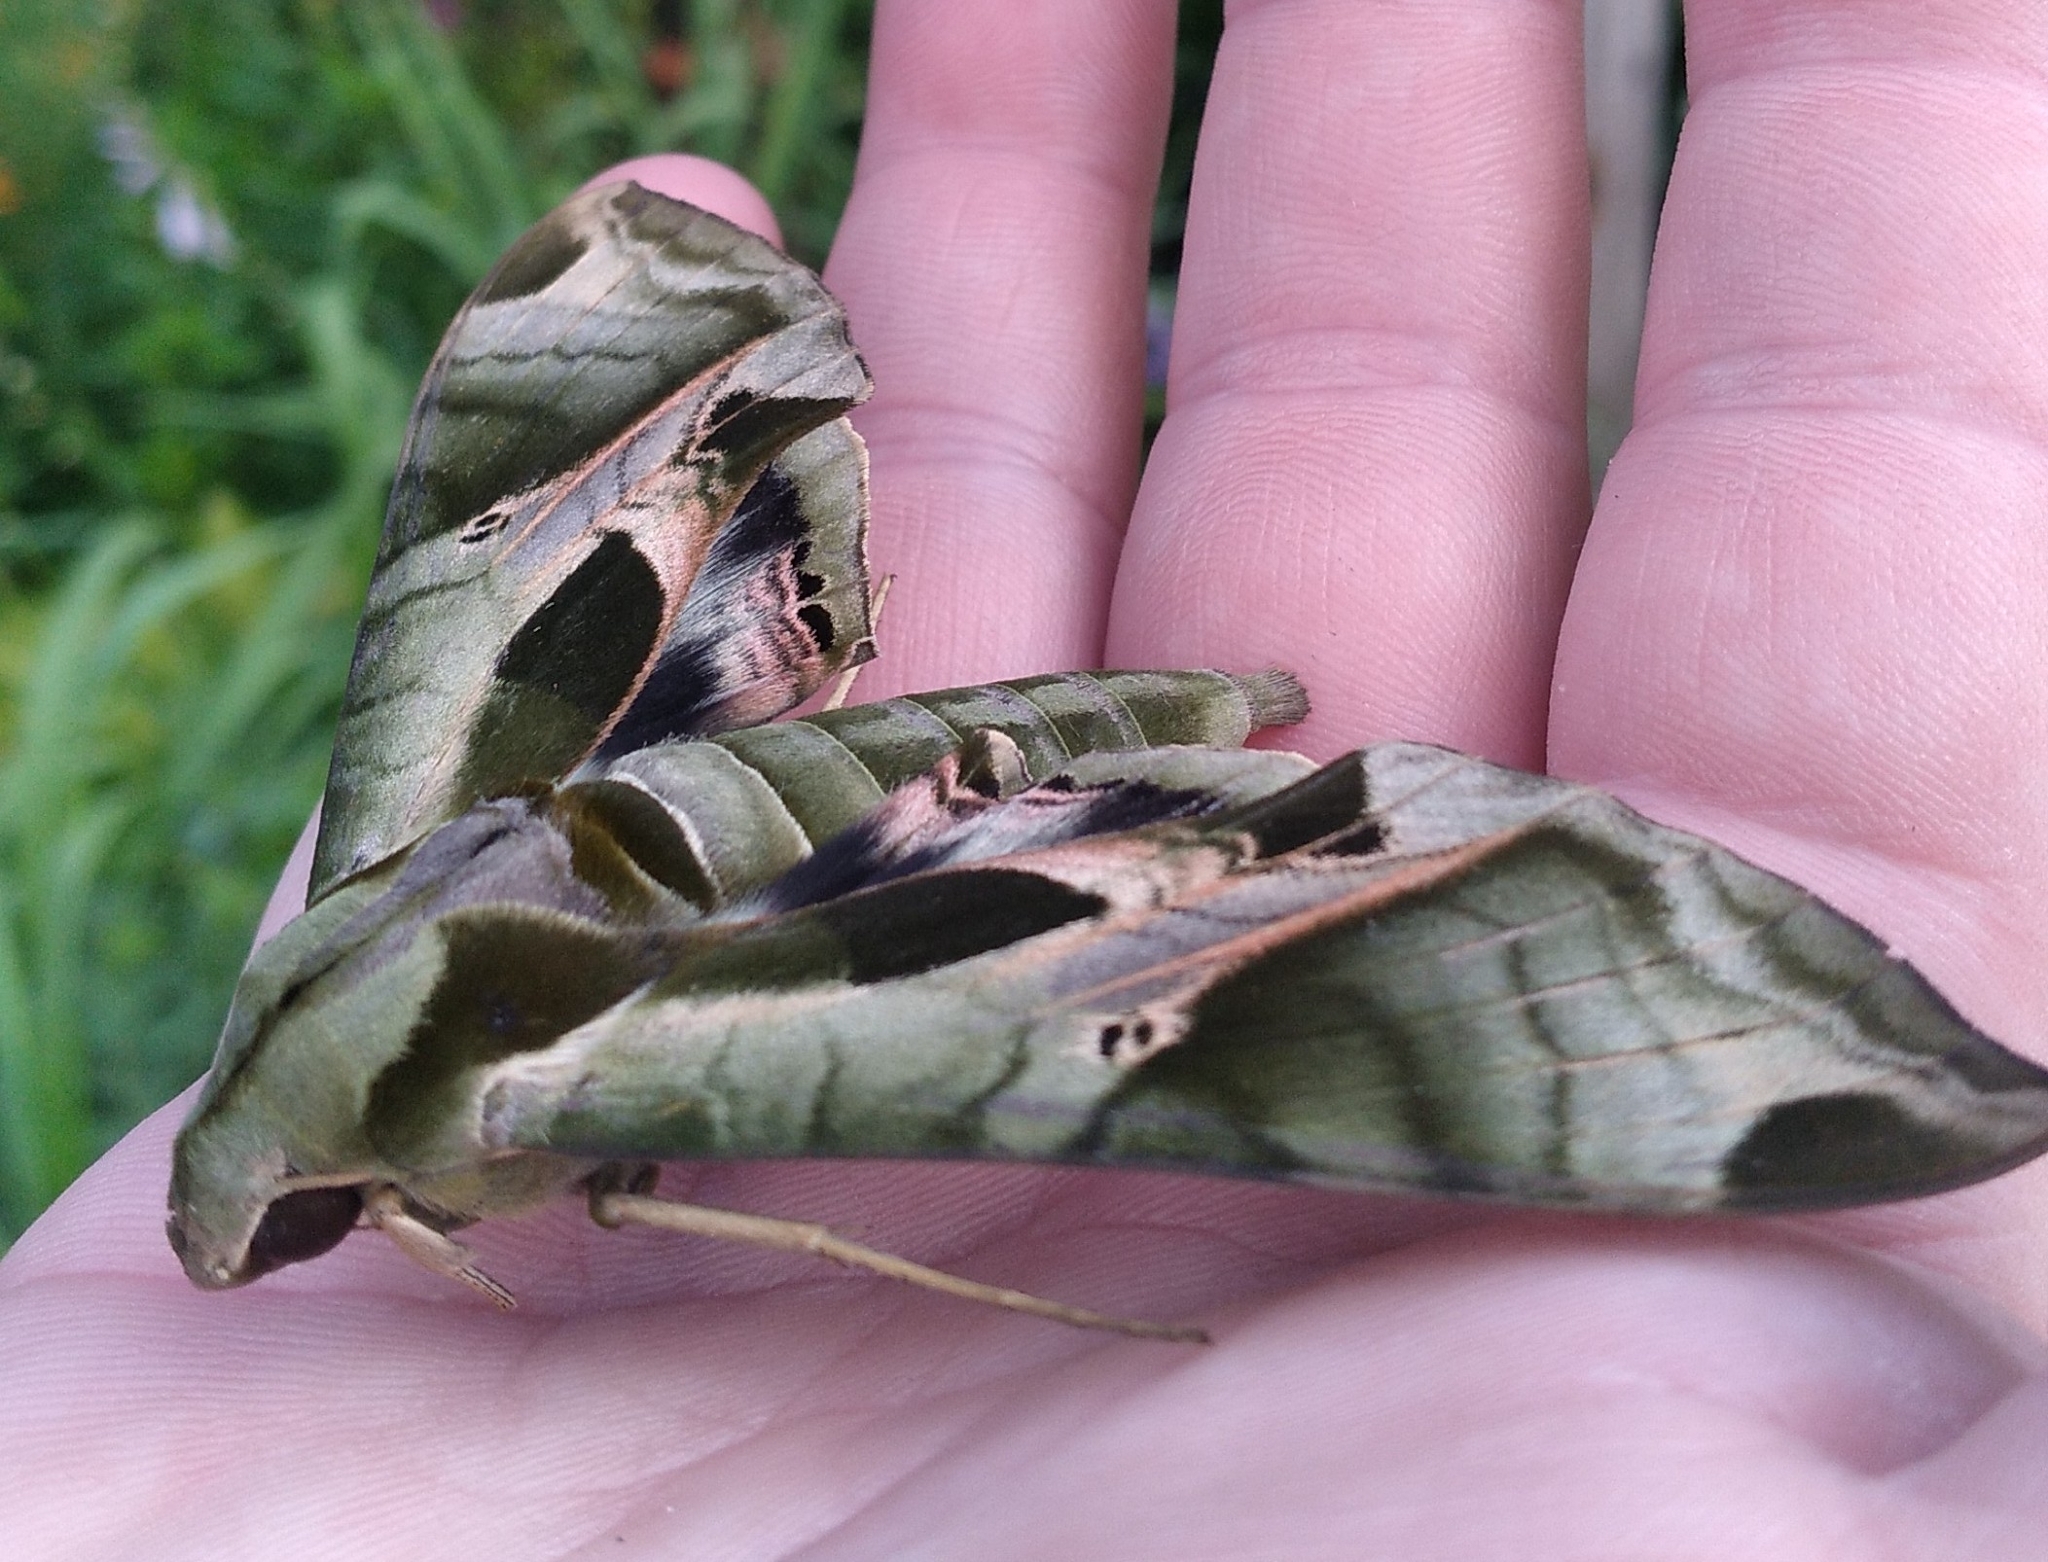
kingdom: Animalia
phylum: Arthropoda
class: Insecta
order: Lepidoptera
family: Sphingidae
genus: Eumorpha
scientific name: Eumorpha pandorus
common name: Pandora sphinx
